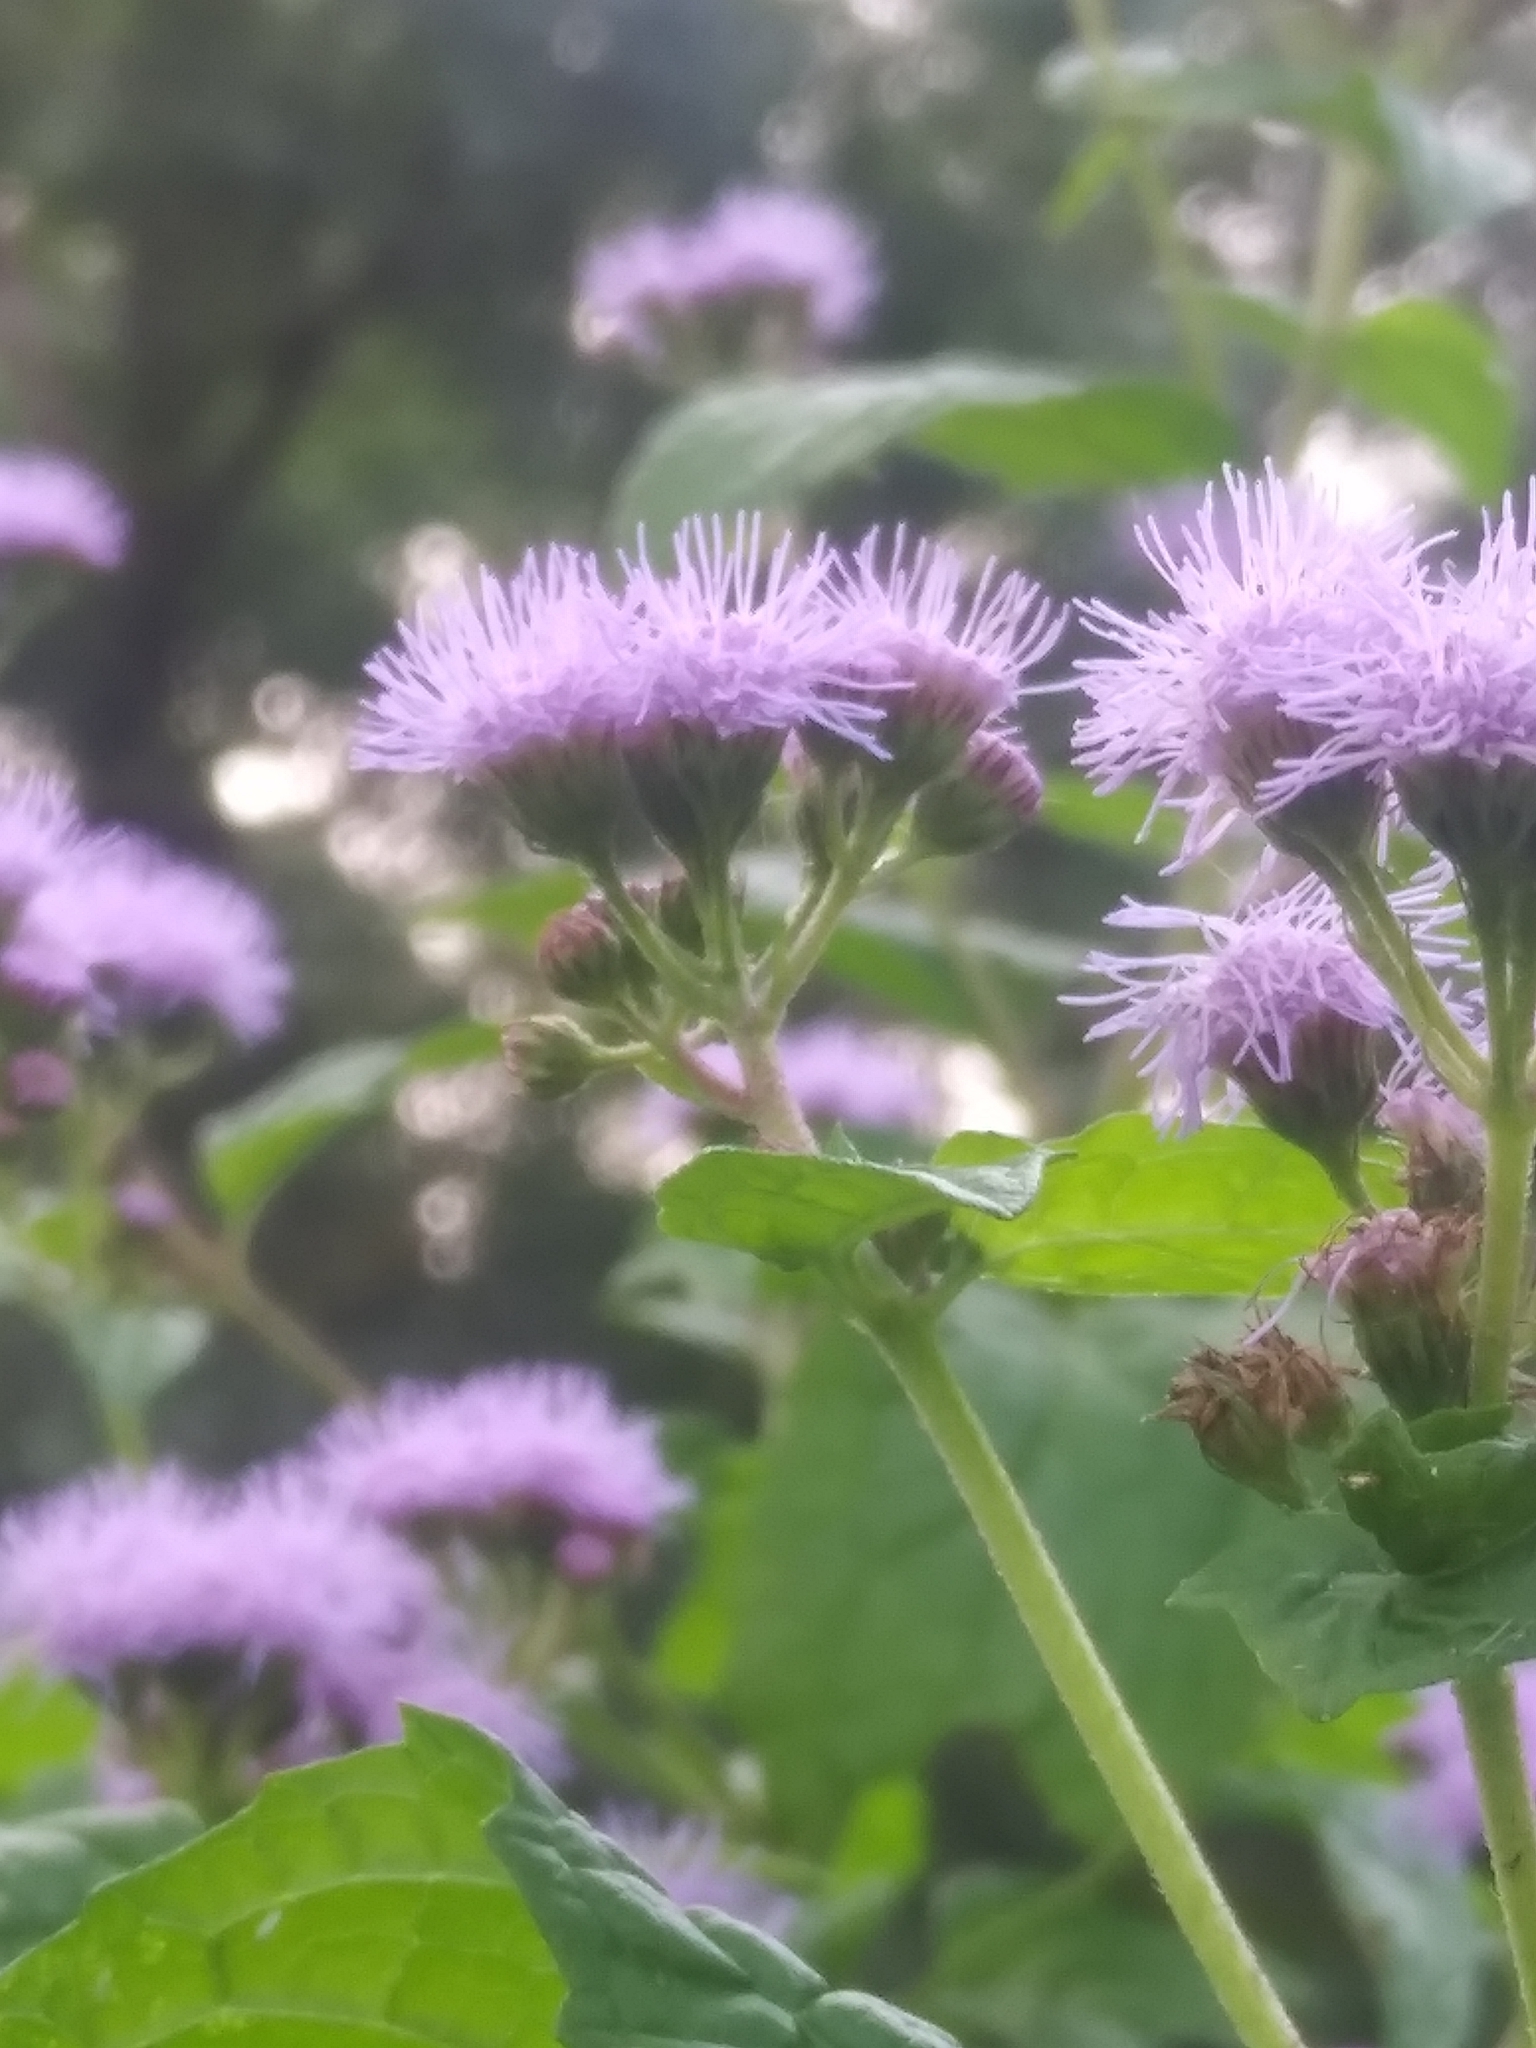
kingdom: Plantae
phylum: Tracheophyta
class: Magnoliopsida
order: Asterales
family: Asteraceae
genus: Conoclinium
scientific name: Conoclinium coelestinum
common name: Blue mistflower
